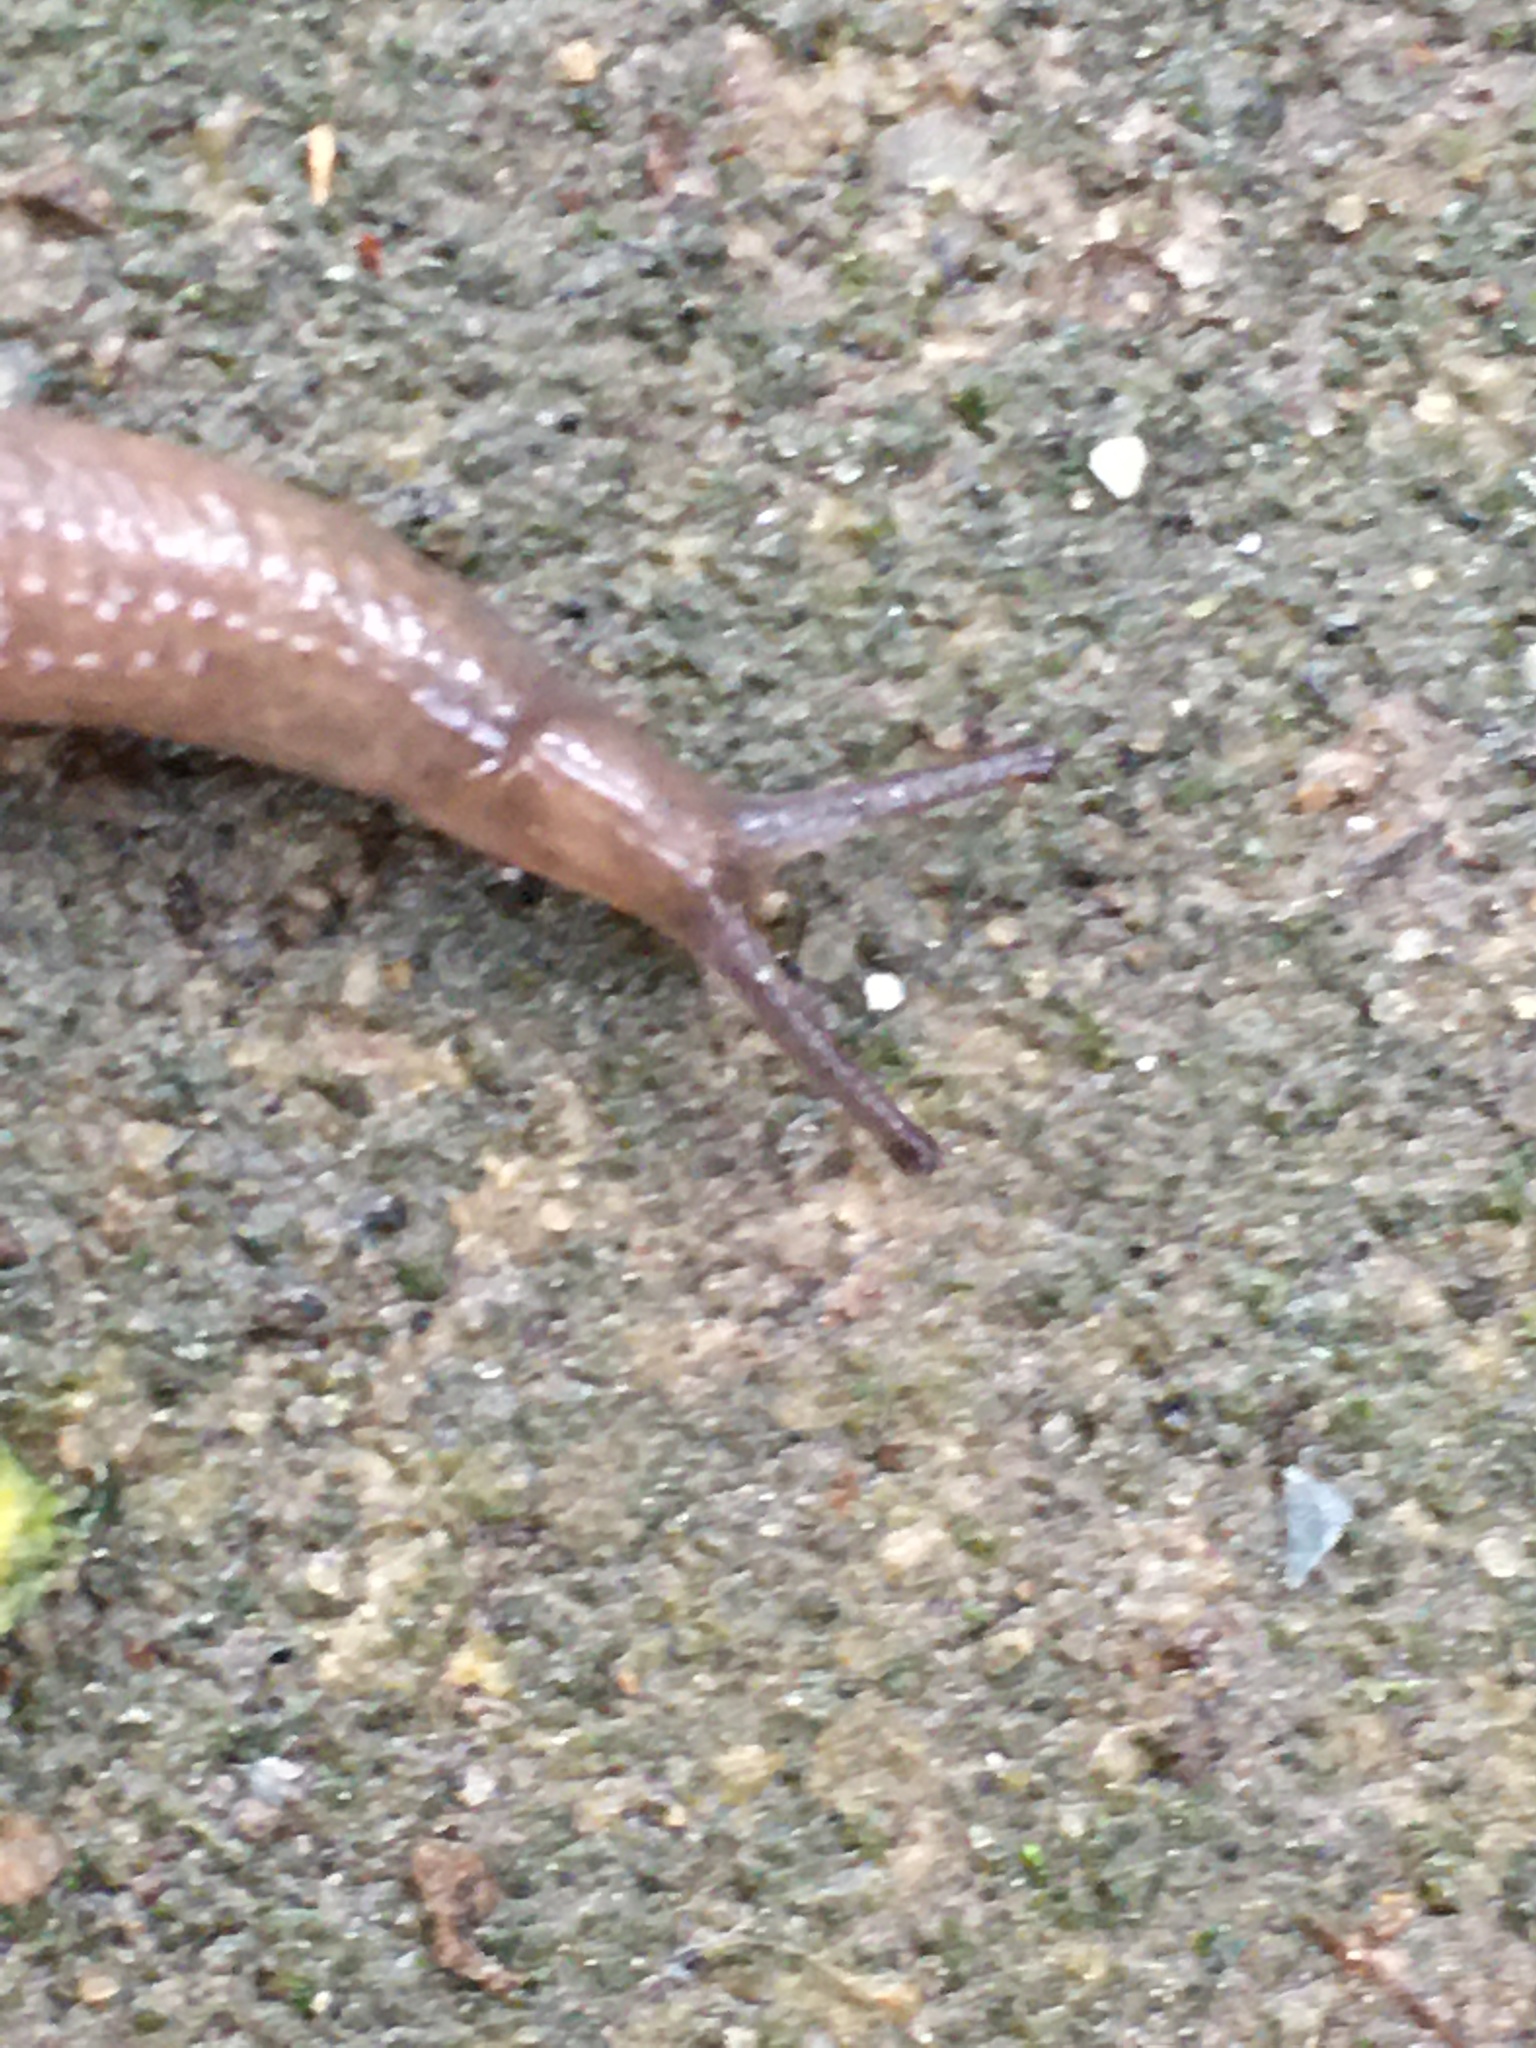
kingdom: Animalia
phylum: Mollusca
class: Gastropoda
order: Stylommatophora
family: Agriolimacidae
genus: Deroceras
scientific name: Deroceras laeve
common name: Marsh slug
